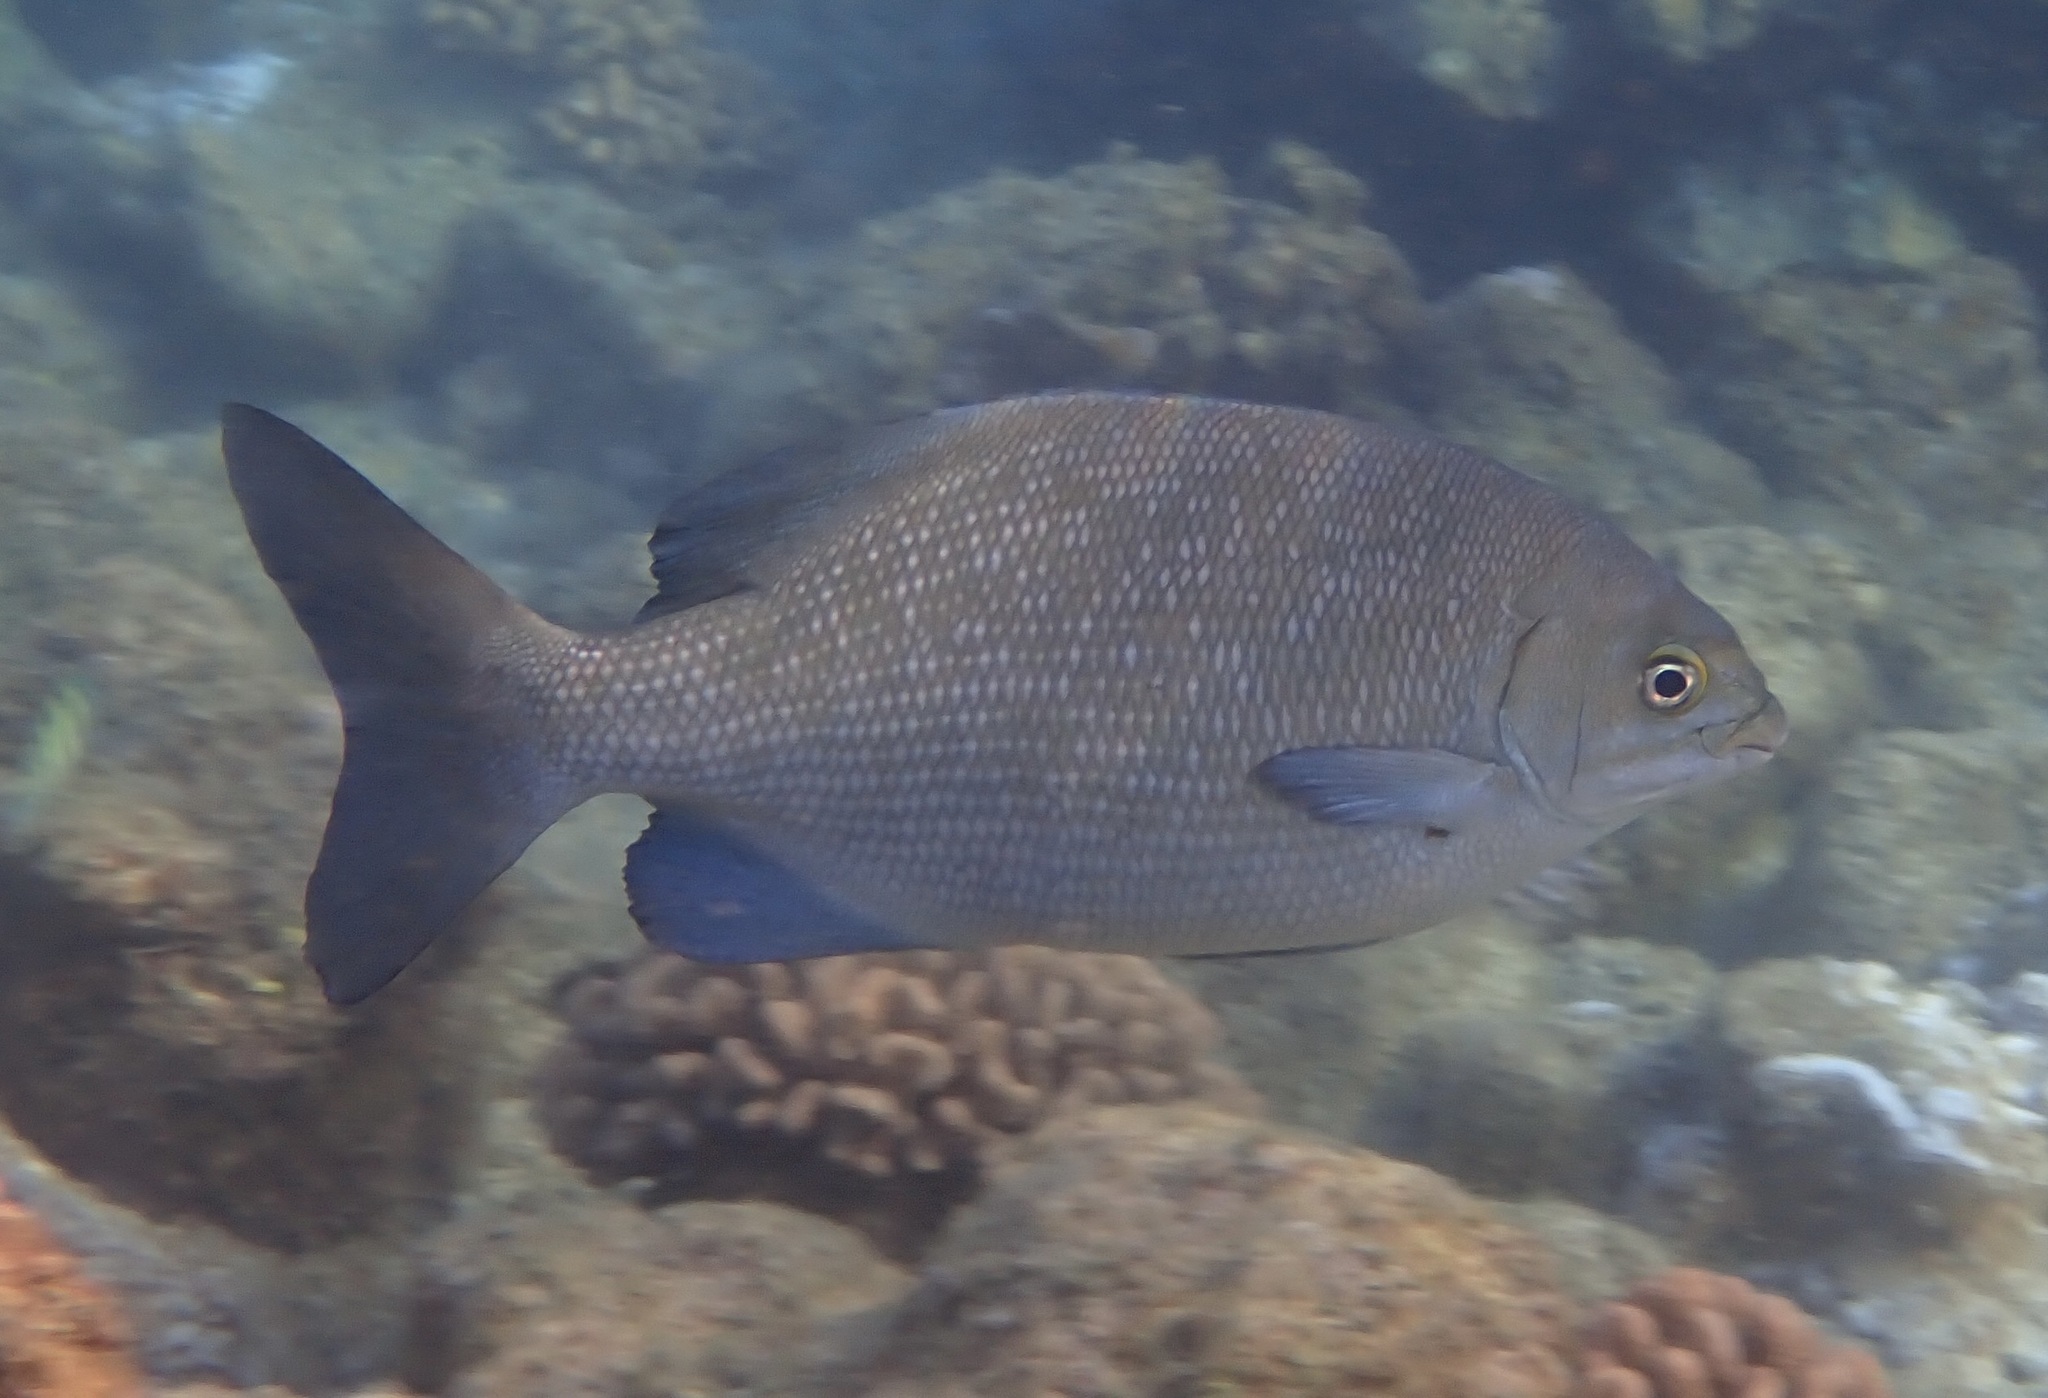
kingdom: Animalia
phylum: Chordata
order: Perciformes
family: Kyphosidae
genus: Kyphosus
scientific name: Kyphosus cinerascens
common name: Topsail drummer
